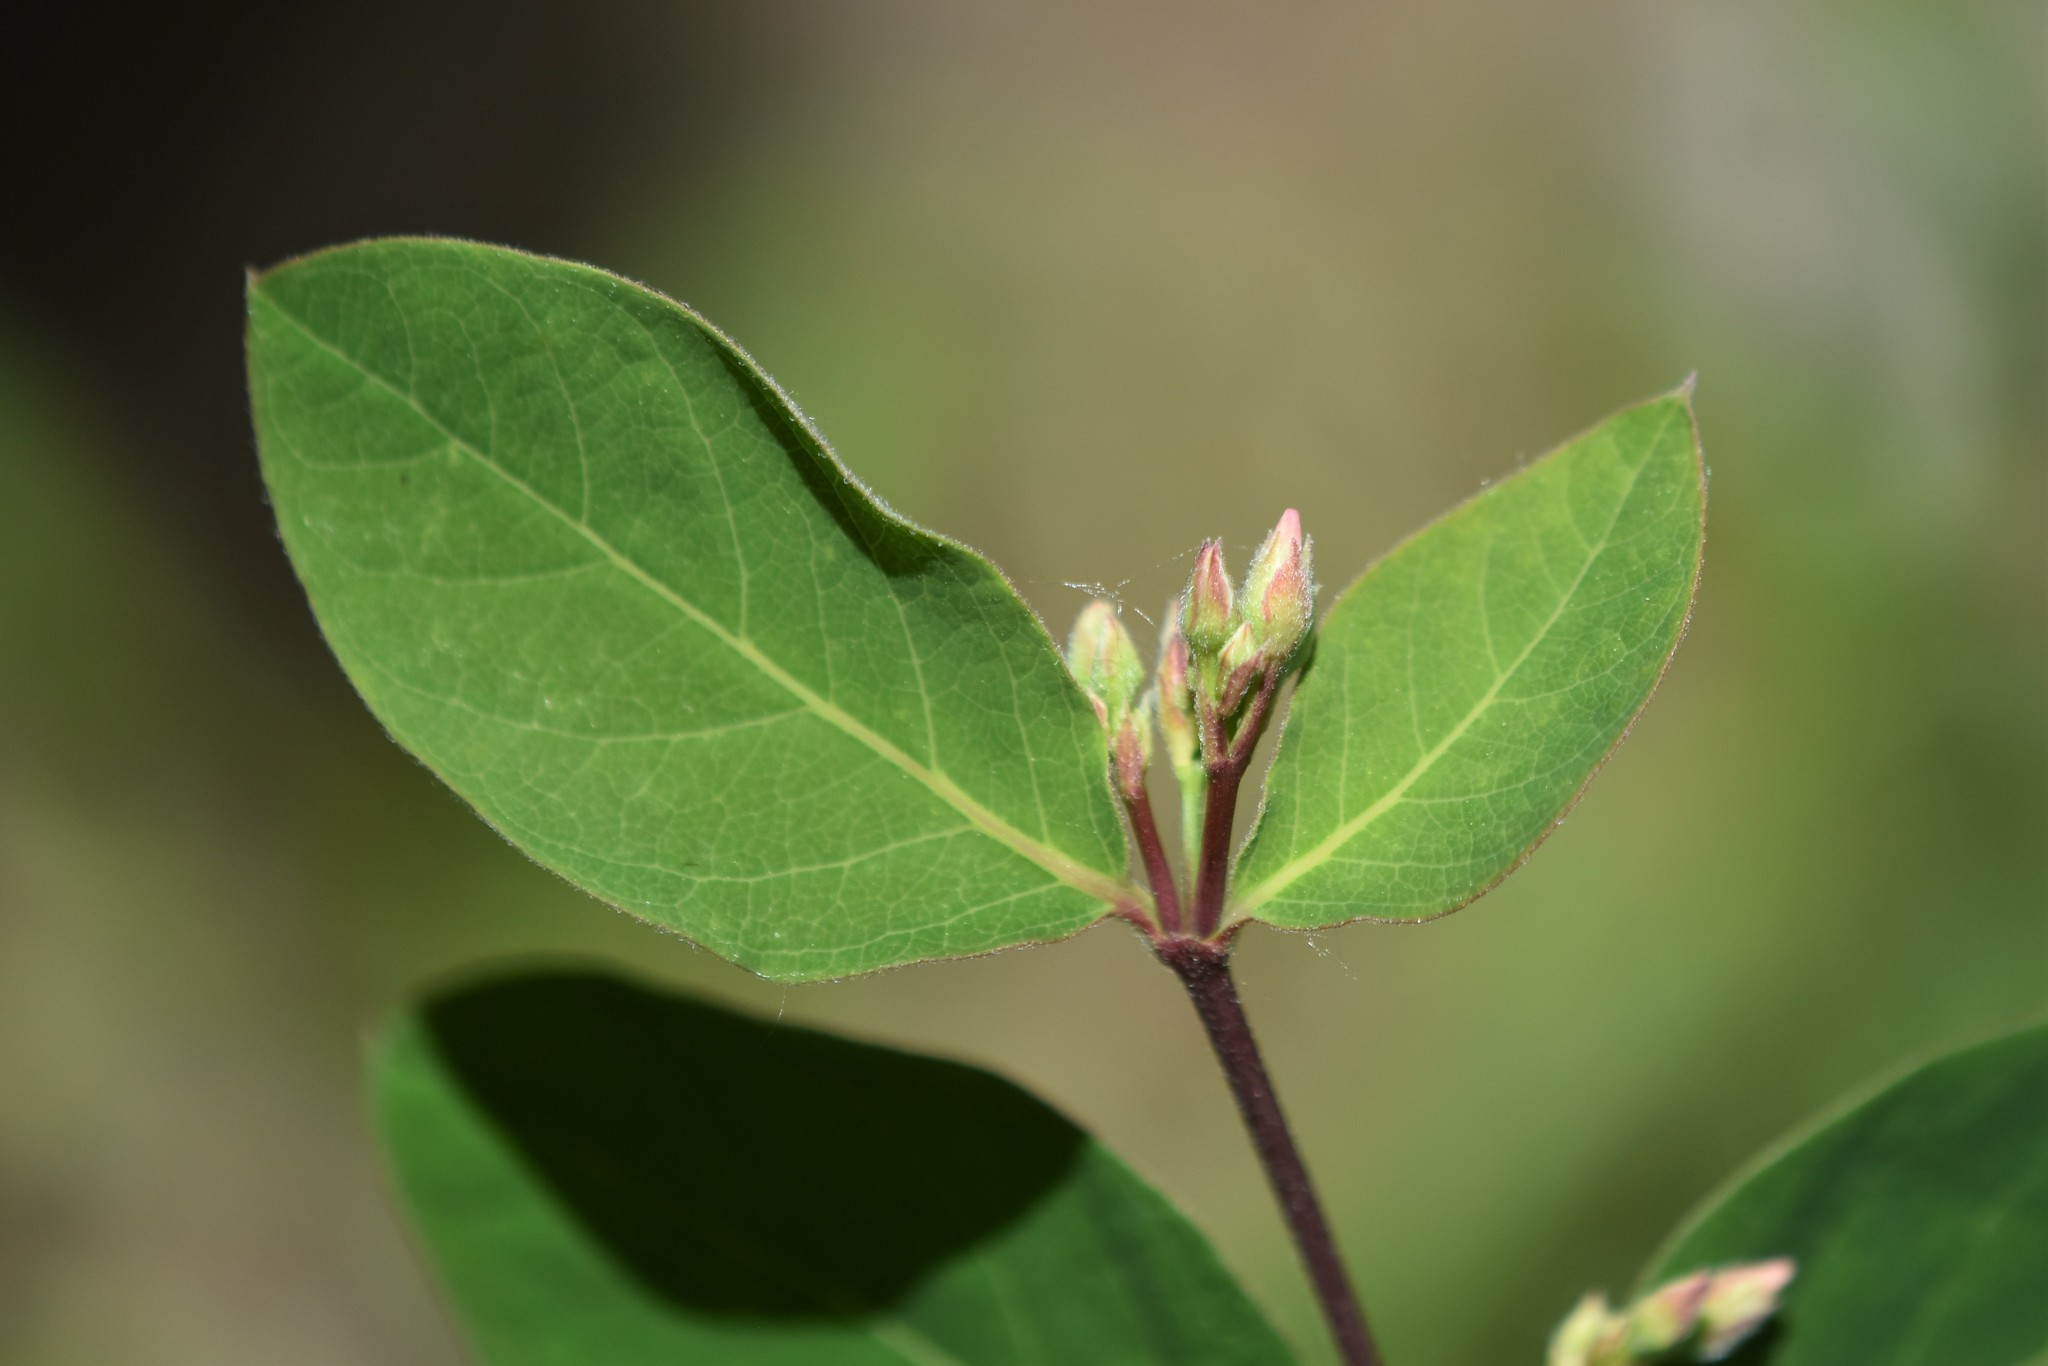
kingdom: Plantae
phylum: Tracheophyta
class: Magnoliopsida
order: Gentianales
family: Apocynaceae
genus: Apocynum
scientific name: Apocynum androsaemifolium
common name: Spreading dogbane
